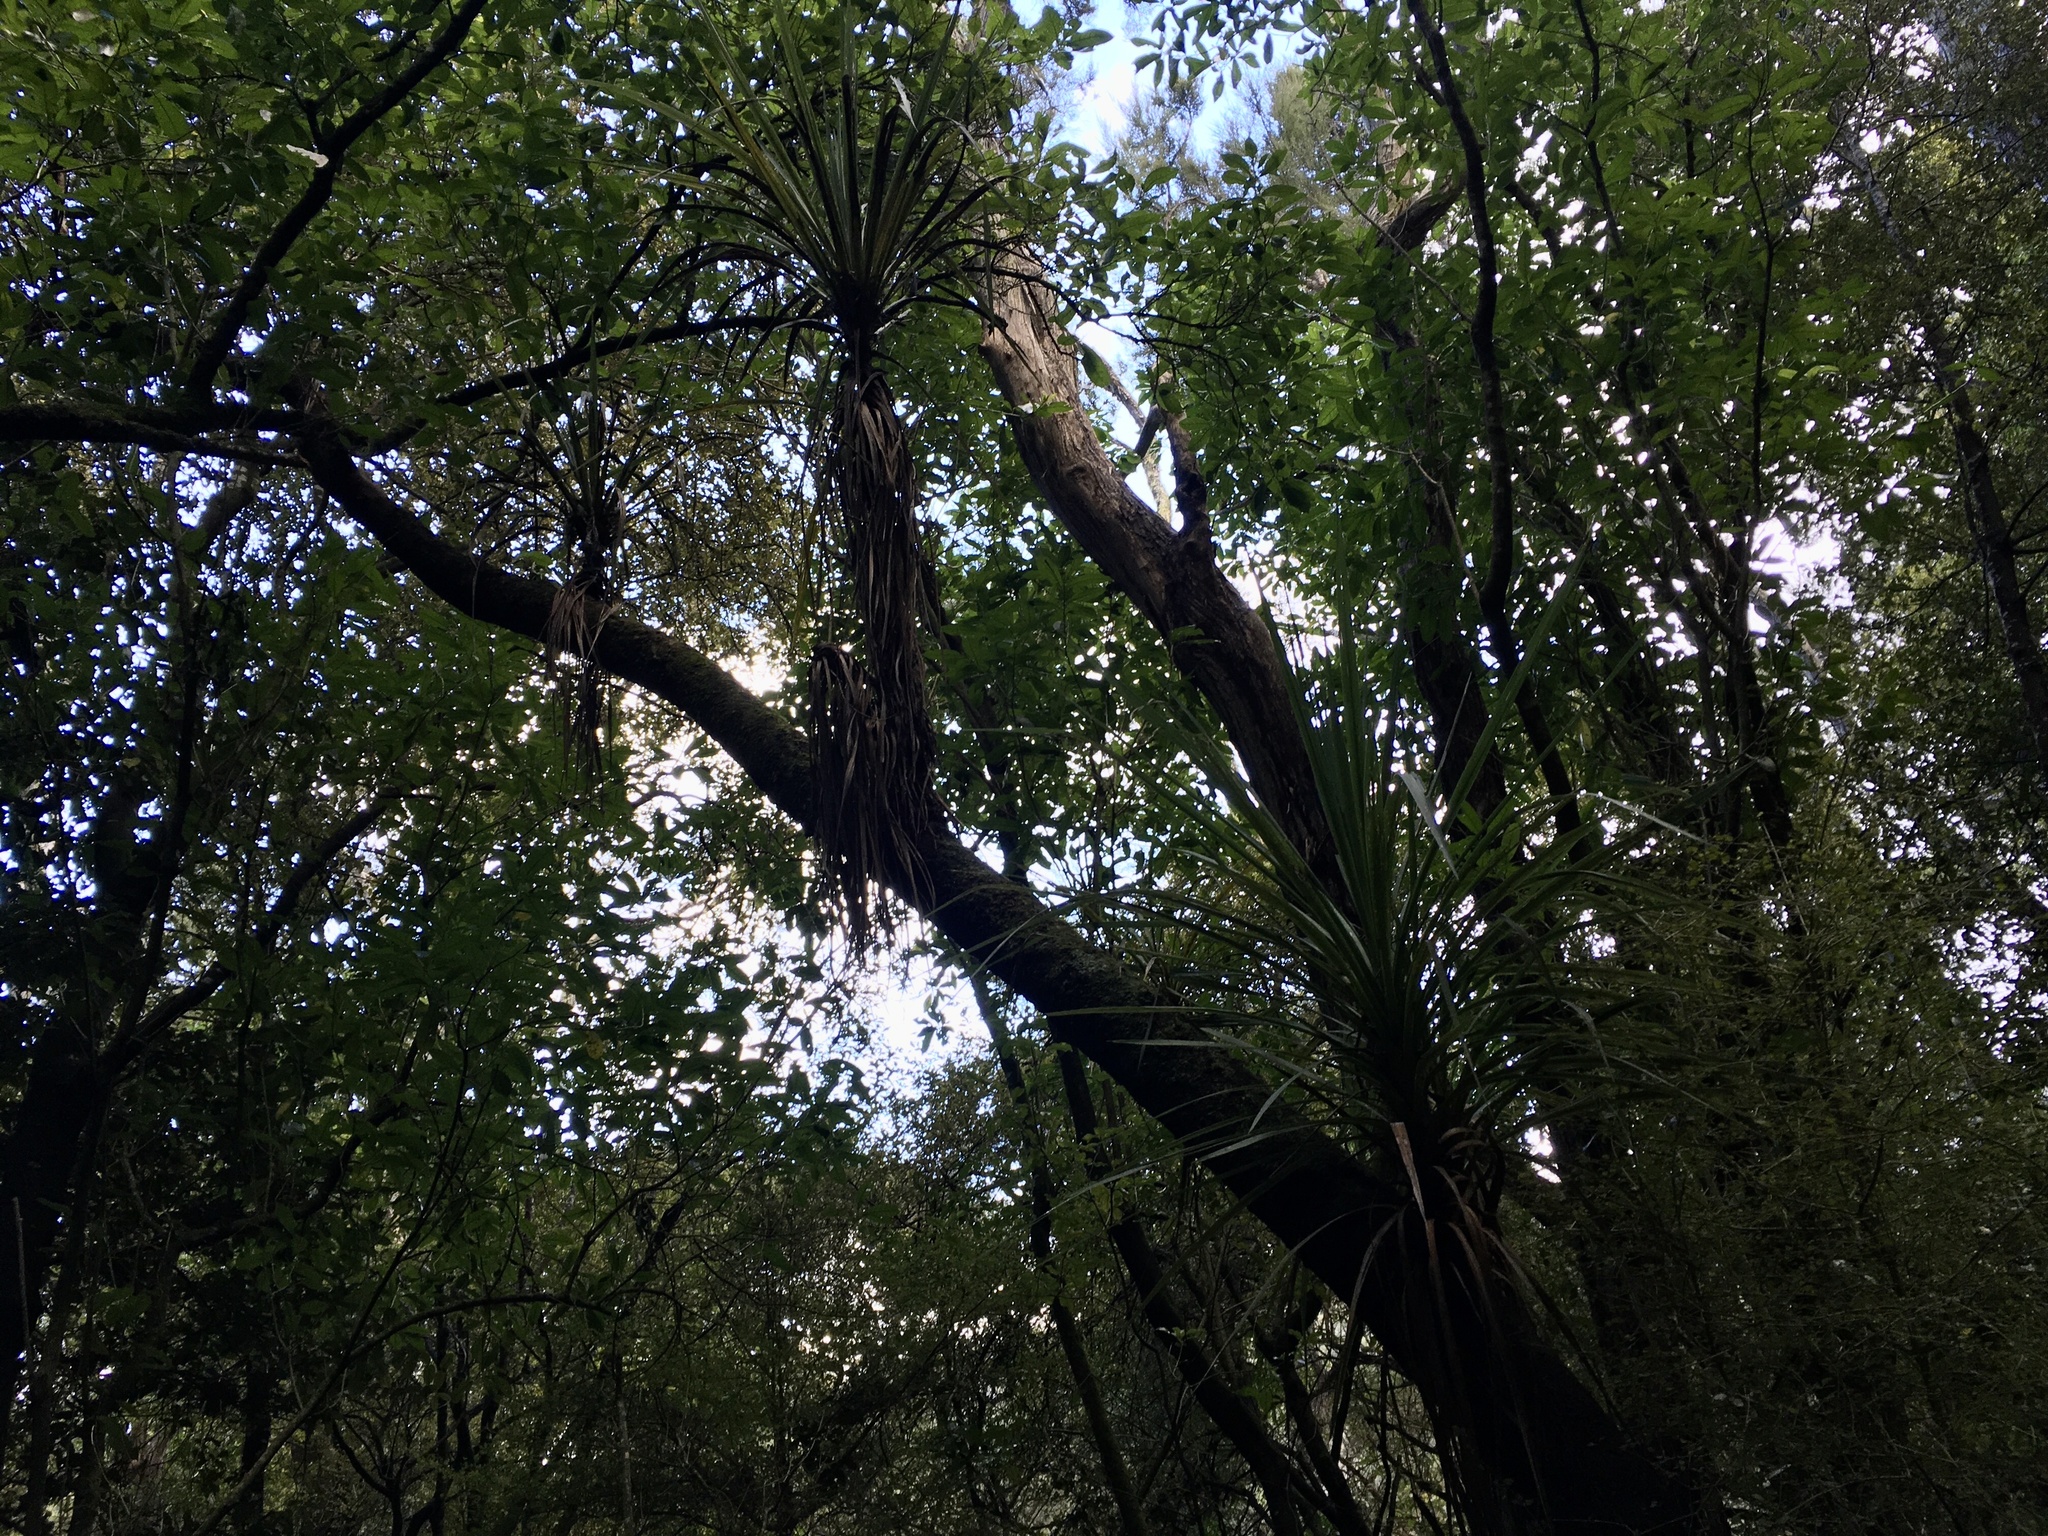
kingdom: Plantae
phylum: Tracheophyta
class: Liliopsida
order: Asparagales
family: Asparagaceae
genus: Cordyline
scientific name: Cordyline australis
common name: Cabbage-palm
